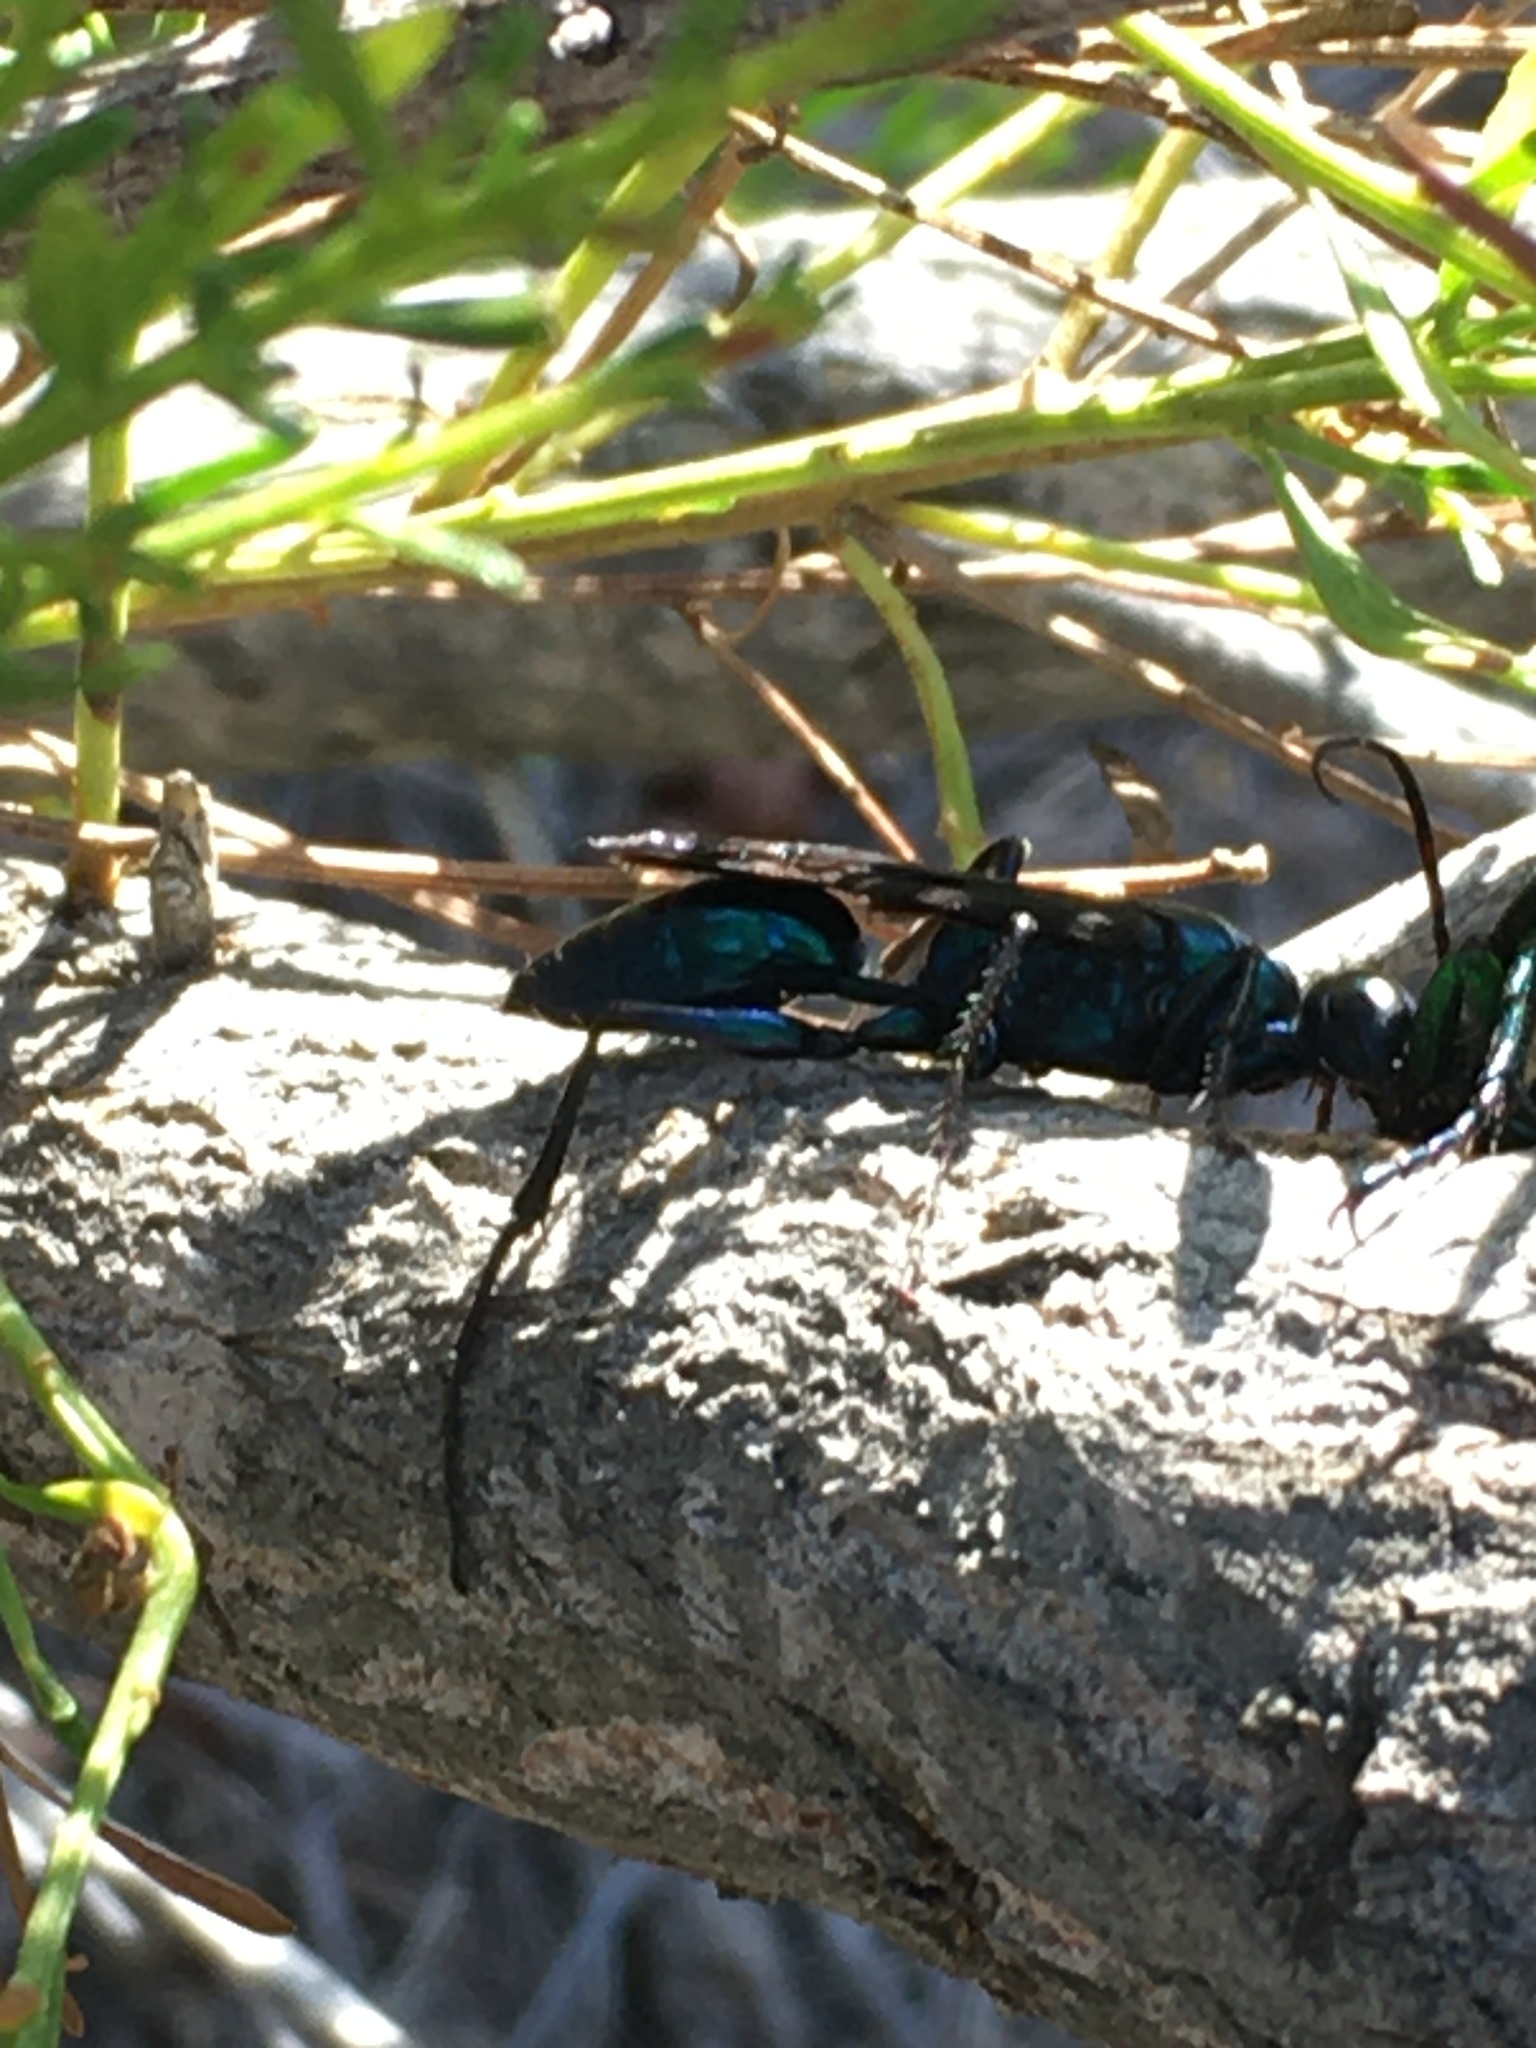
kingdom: Animalia
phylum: Arthropoda
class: Insecta
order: Hymenoptera
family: Sphecidae
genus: Chlorion
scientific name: Chlorion aerarium
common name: Steel-blue cricket hunter
